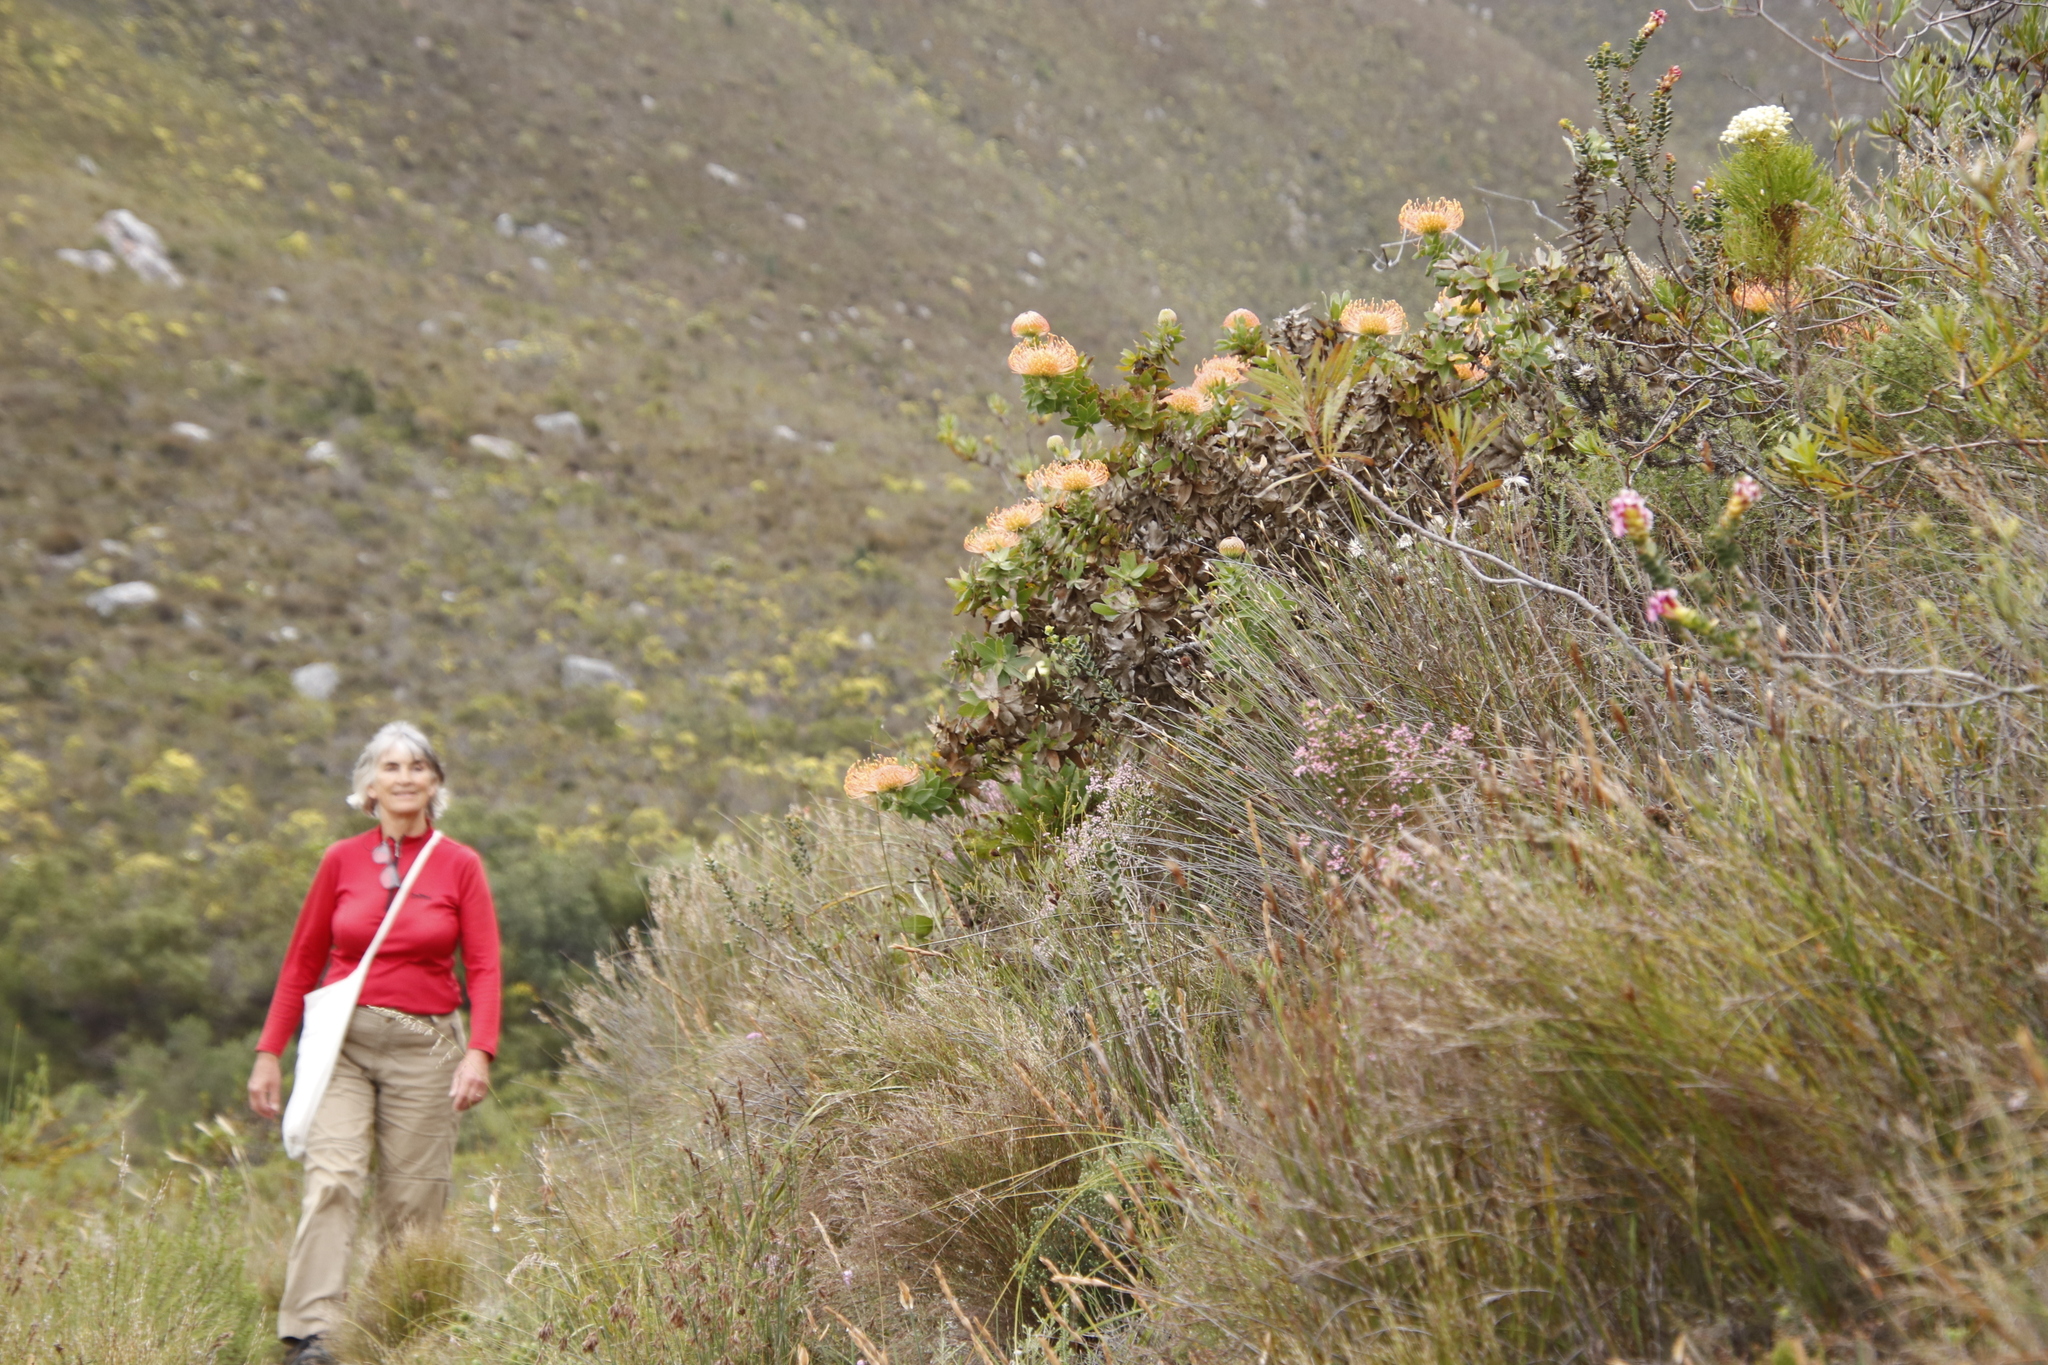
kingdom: Plantae
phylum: Tracheophyta
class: Magnoliopsida
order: Proteales
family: Proteaceae
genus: Leucospermum
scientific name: Leucospermum cordifolium
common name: Red pincushion-protea
